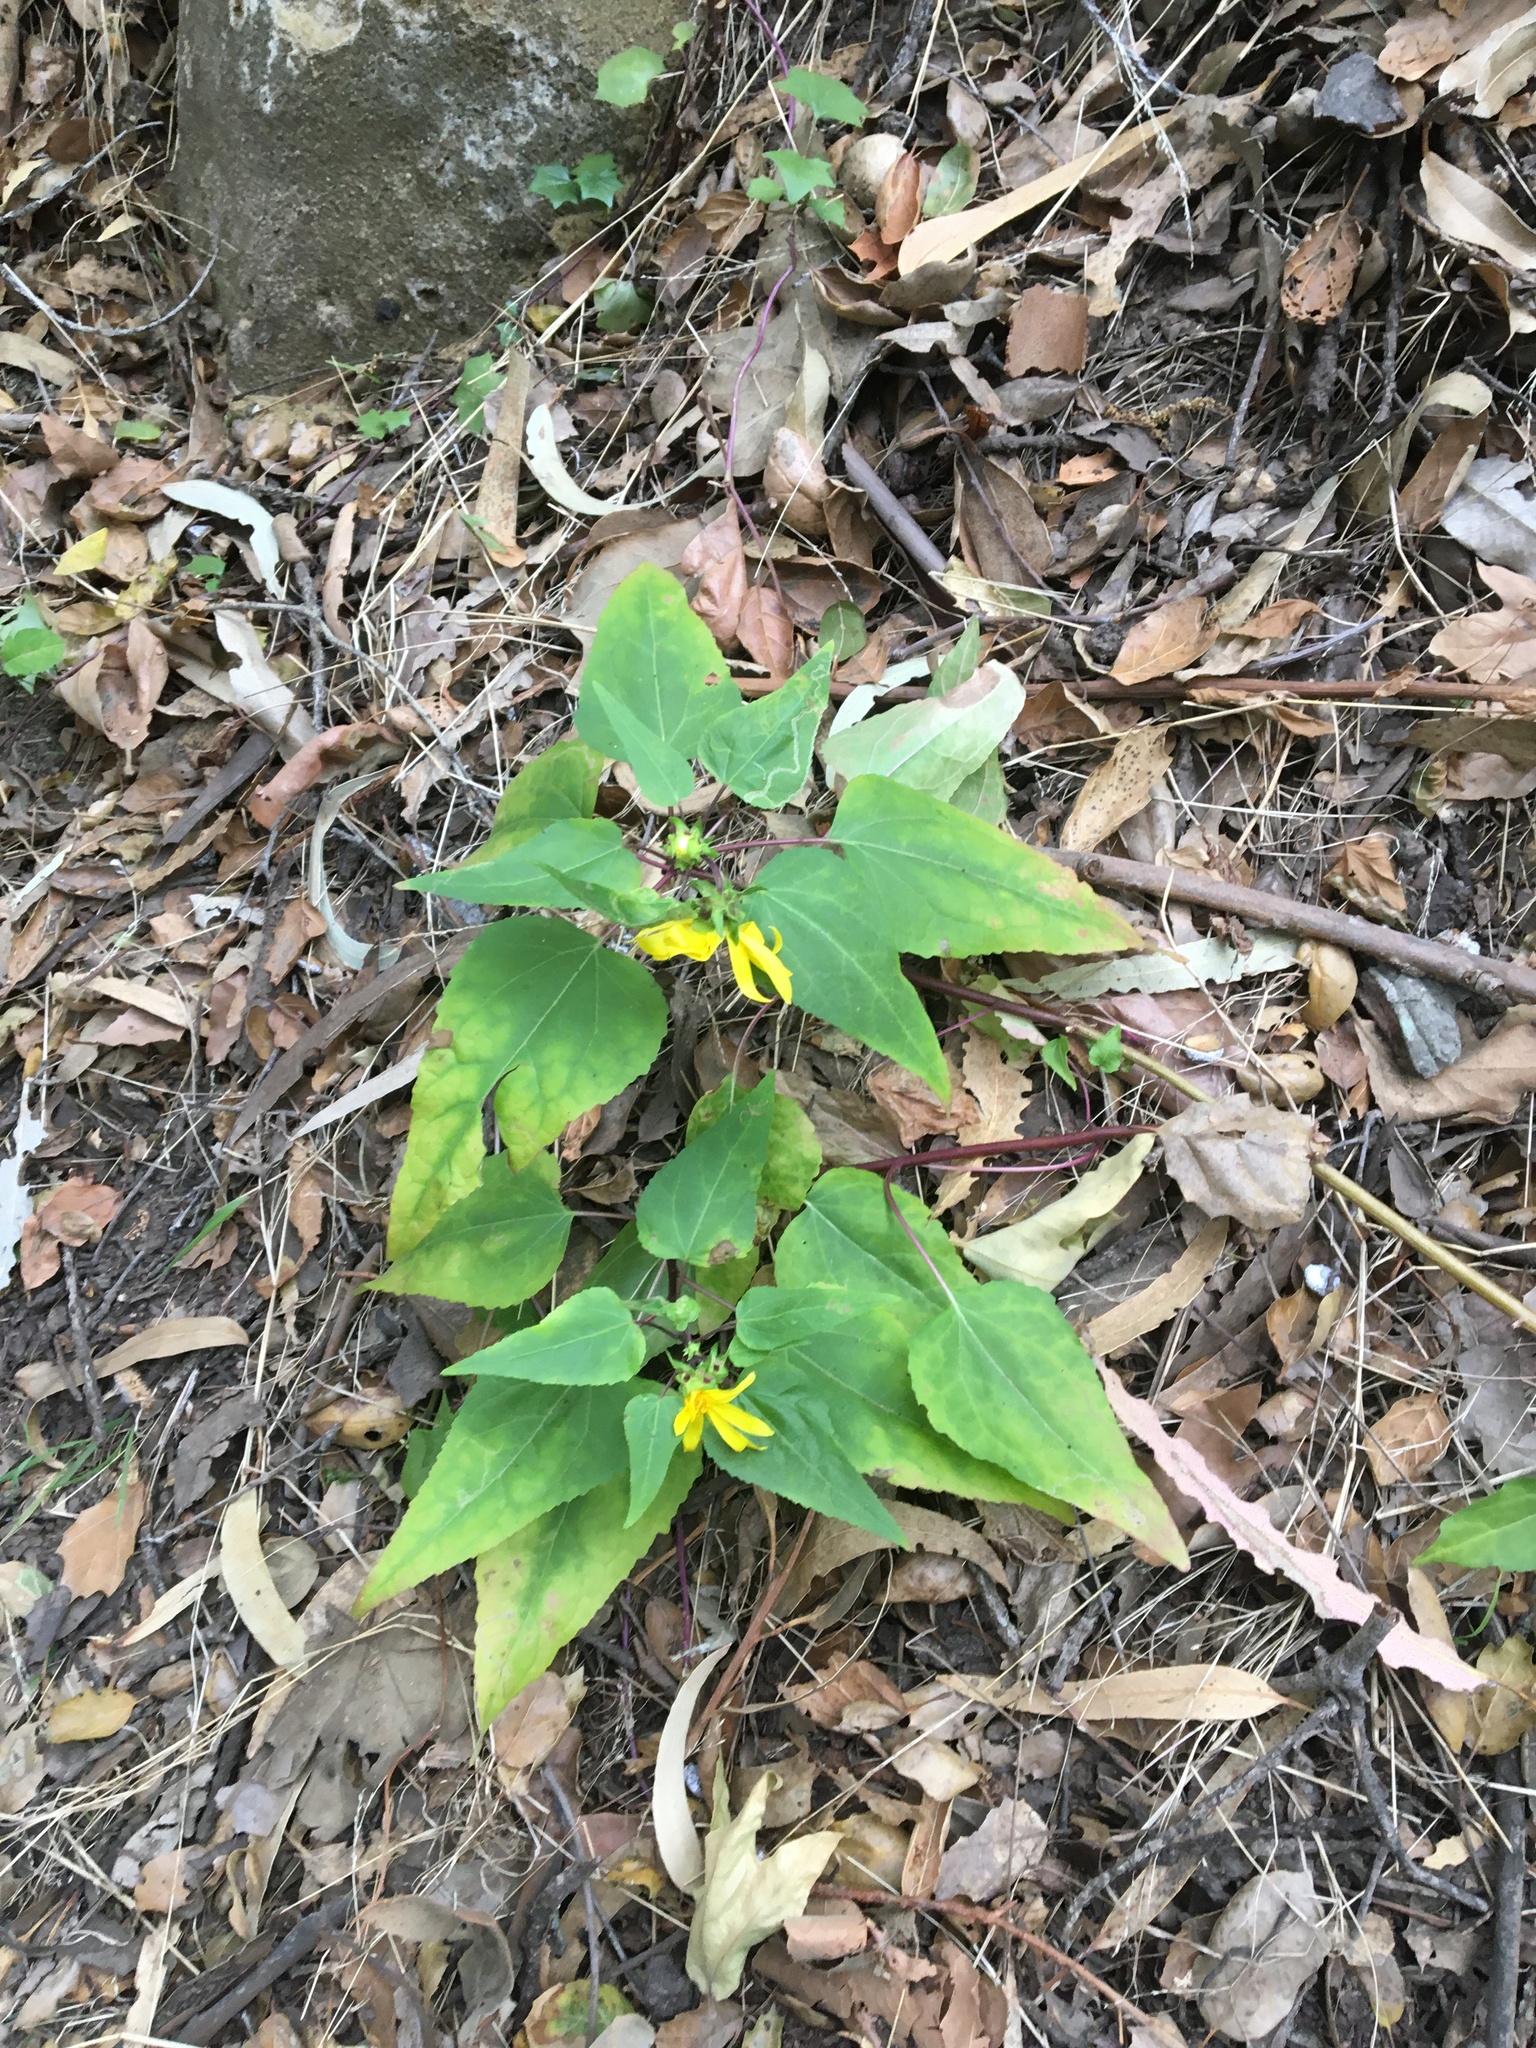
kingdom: Plantae
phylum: Tracheophyta
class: Magnoliopsida
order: Asterales
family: Asteraceae
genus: Venegasia
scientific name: Venegasia carpesioides
